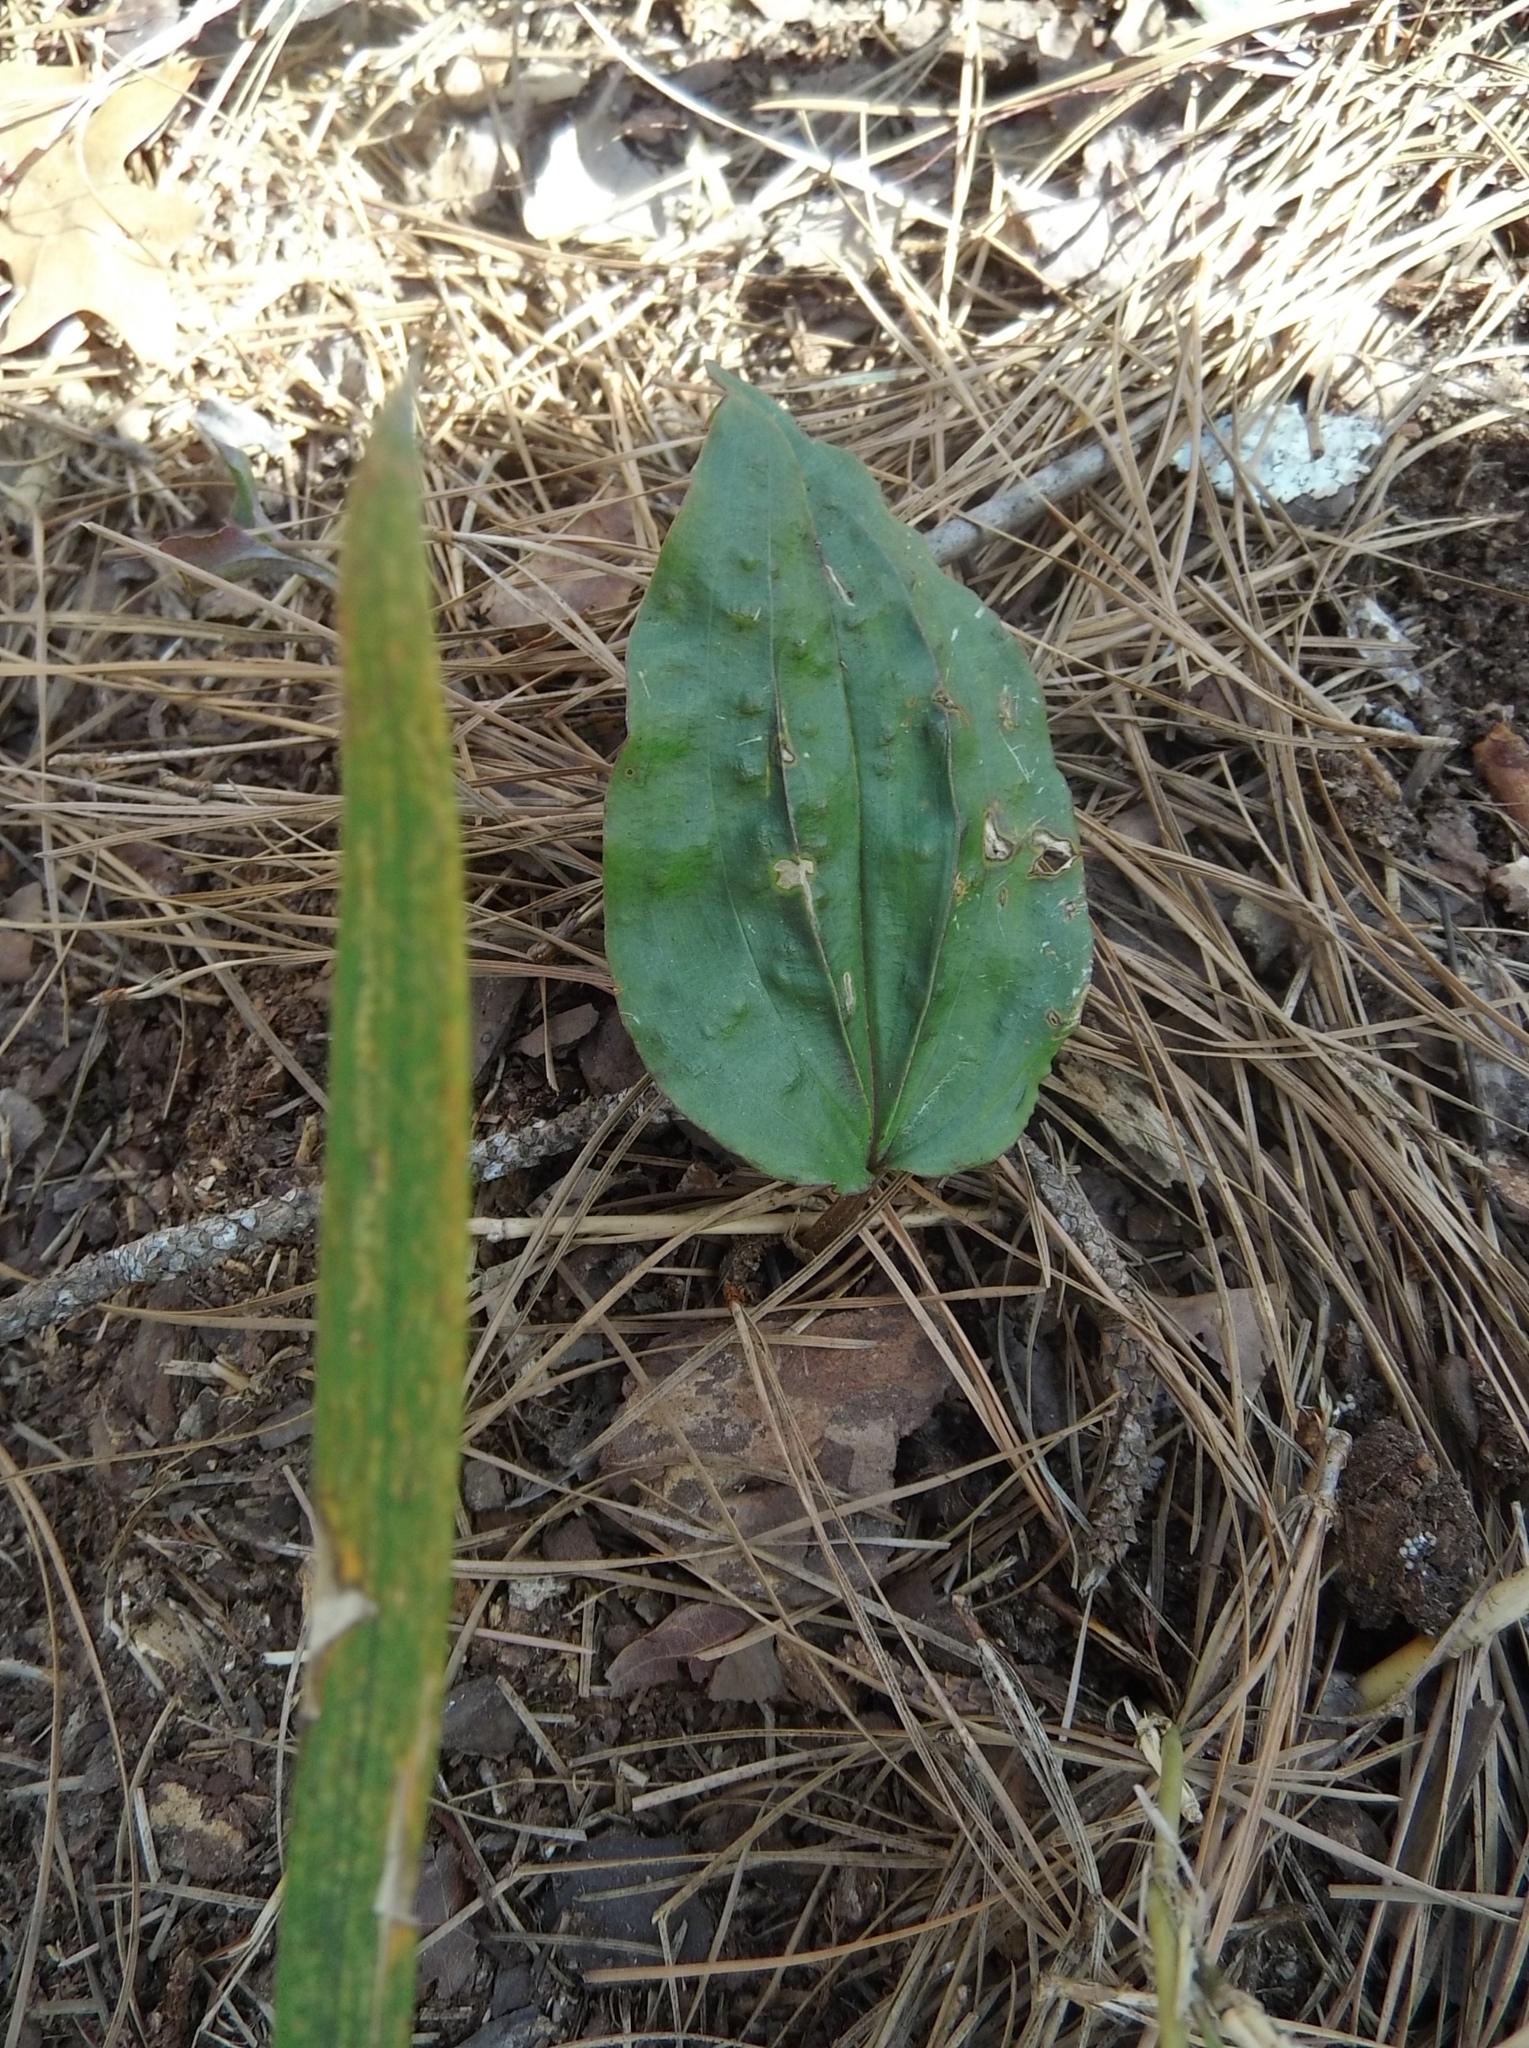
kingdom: Plantae
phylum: Tracheophyta
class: Liliopsida
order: Asparagales
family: Orchidaceae
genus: Tipularia
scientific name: Tipularia discolor
